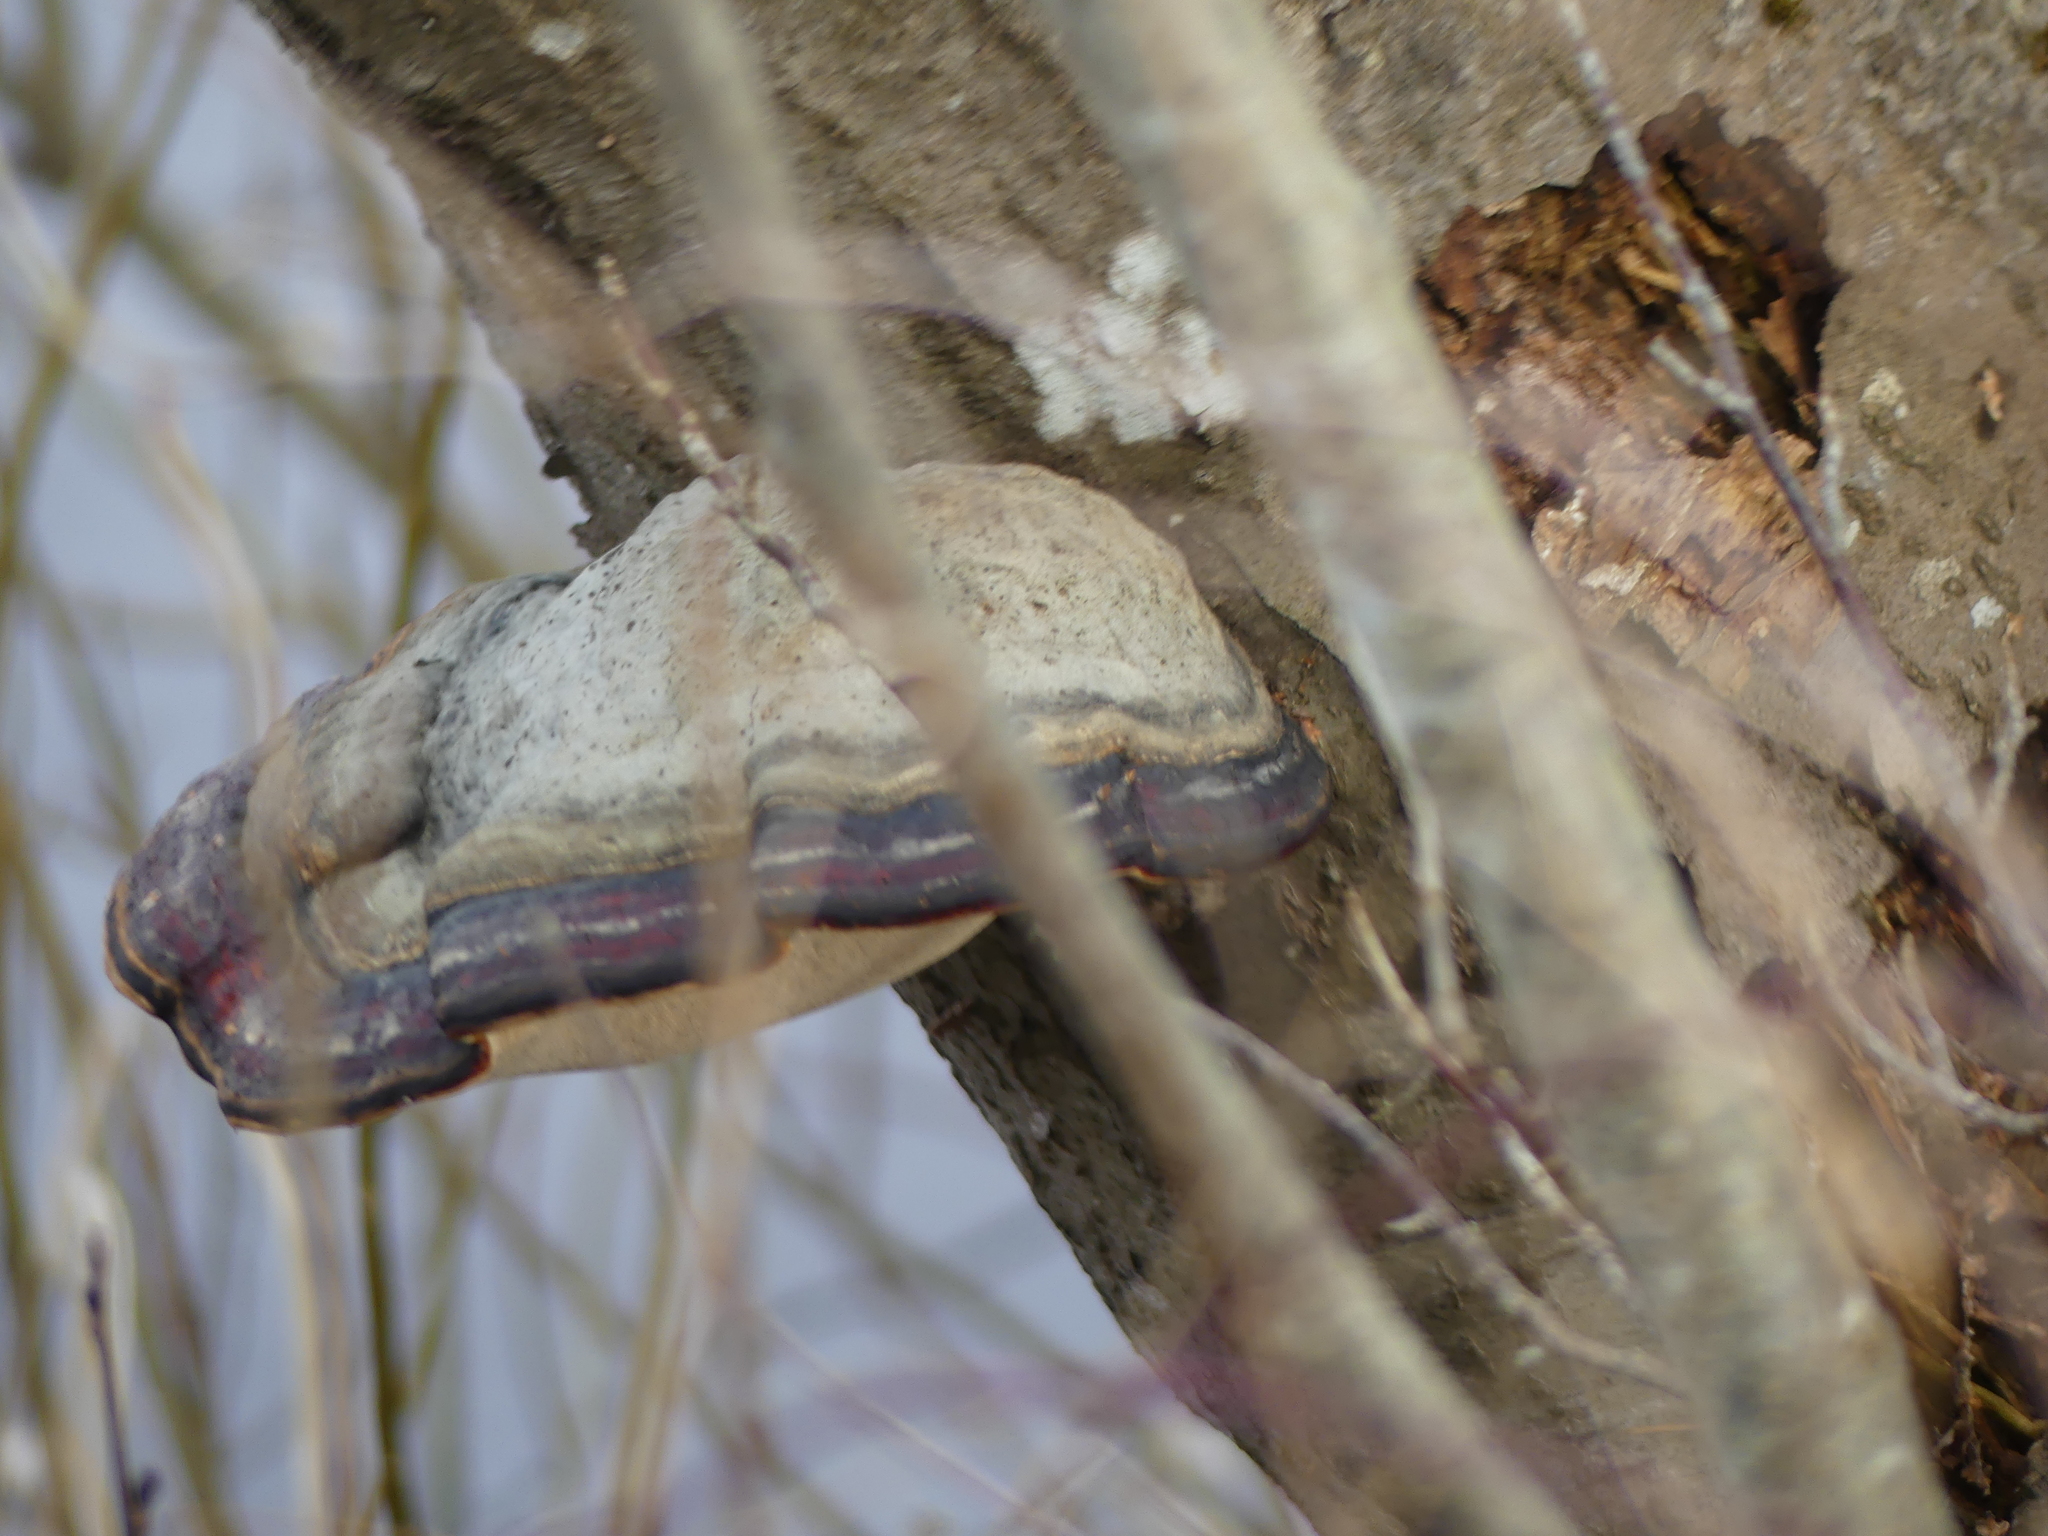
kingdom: Fungi
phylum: Basidiomycota
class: Agaricomycetes
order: Polyporales
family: Fomitopsidaceae
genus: Fomitopsis
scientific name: Fomitopsis pinicola
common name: Red-belted bracket
